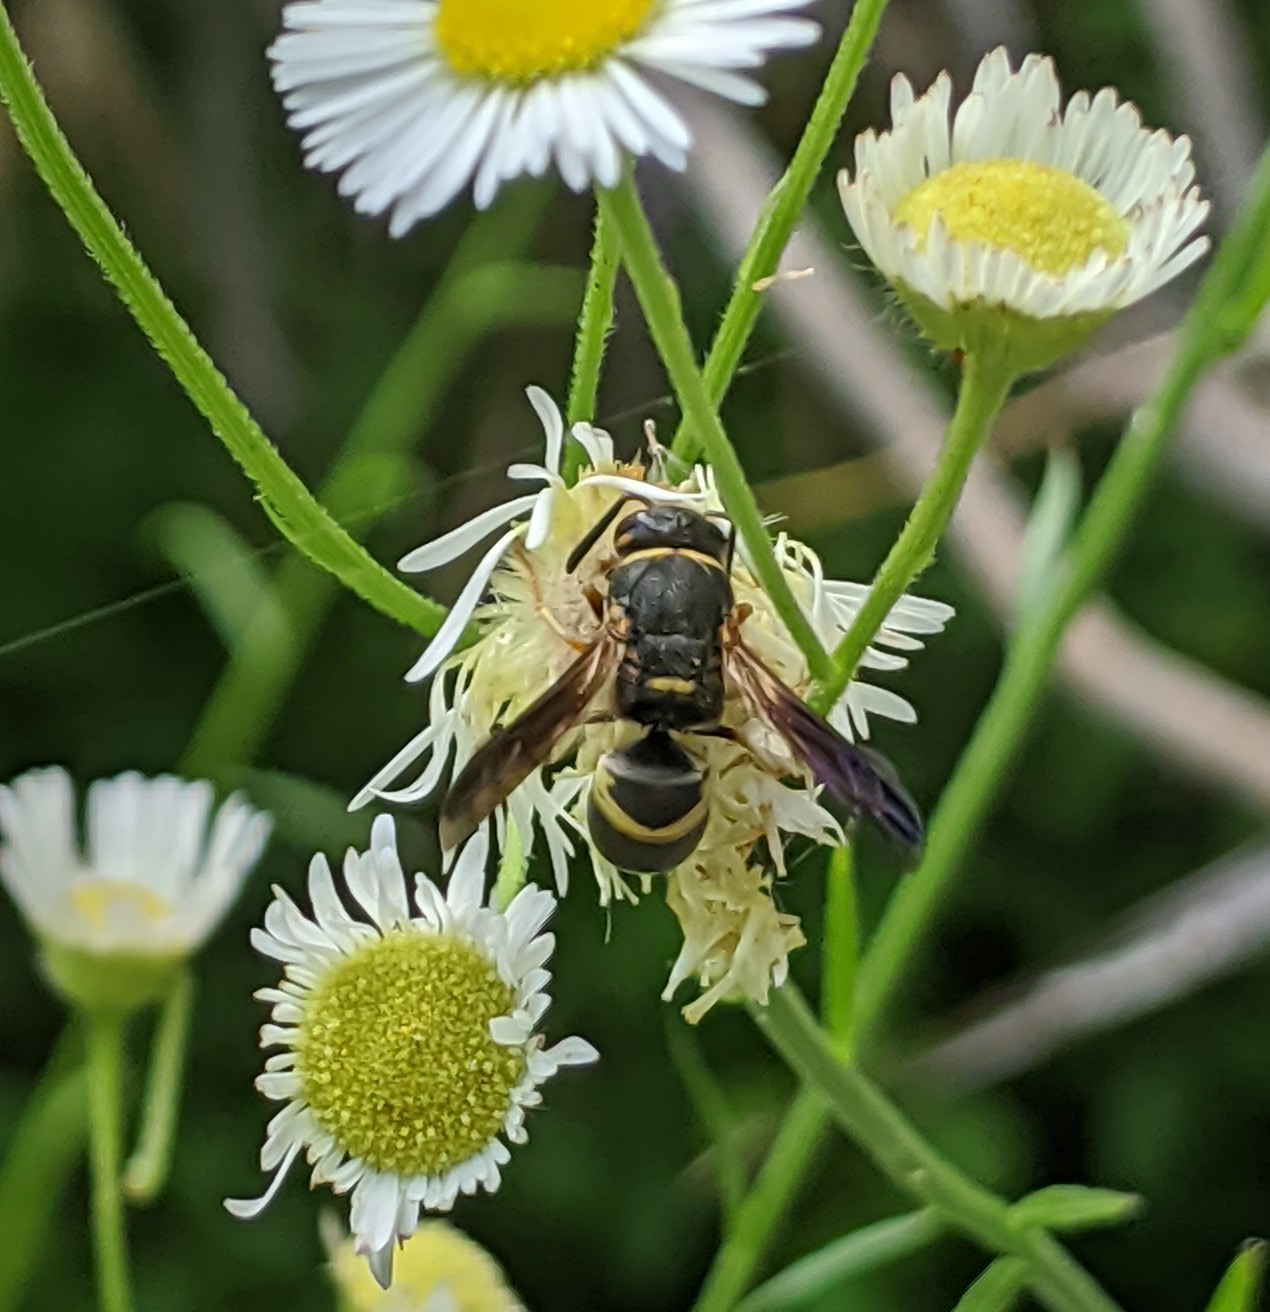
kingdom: Animalia
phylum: Arthropoda
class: Insecta
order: Hymenoptera
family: Eumenidae
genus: Euodynerus
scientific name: Euodynerus hidalgo
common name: Wasp
